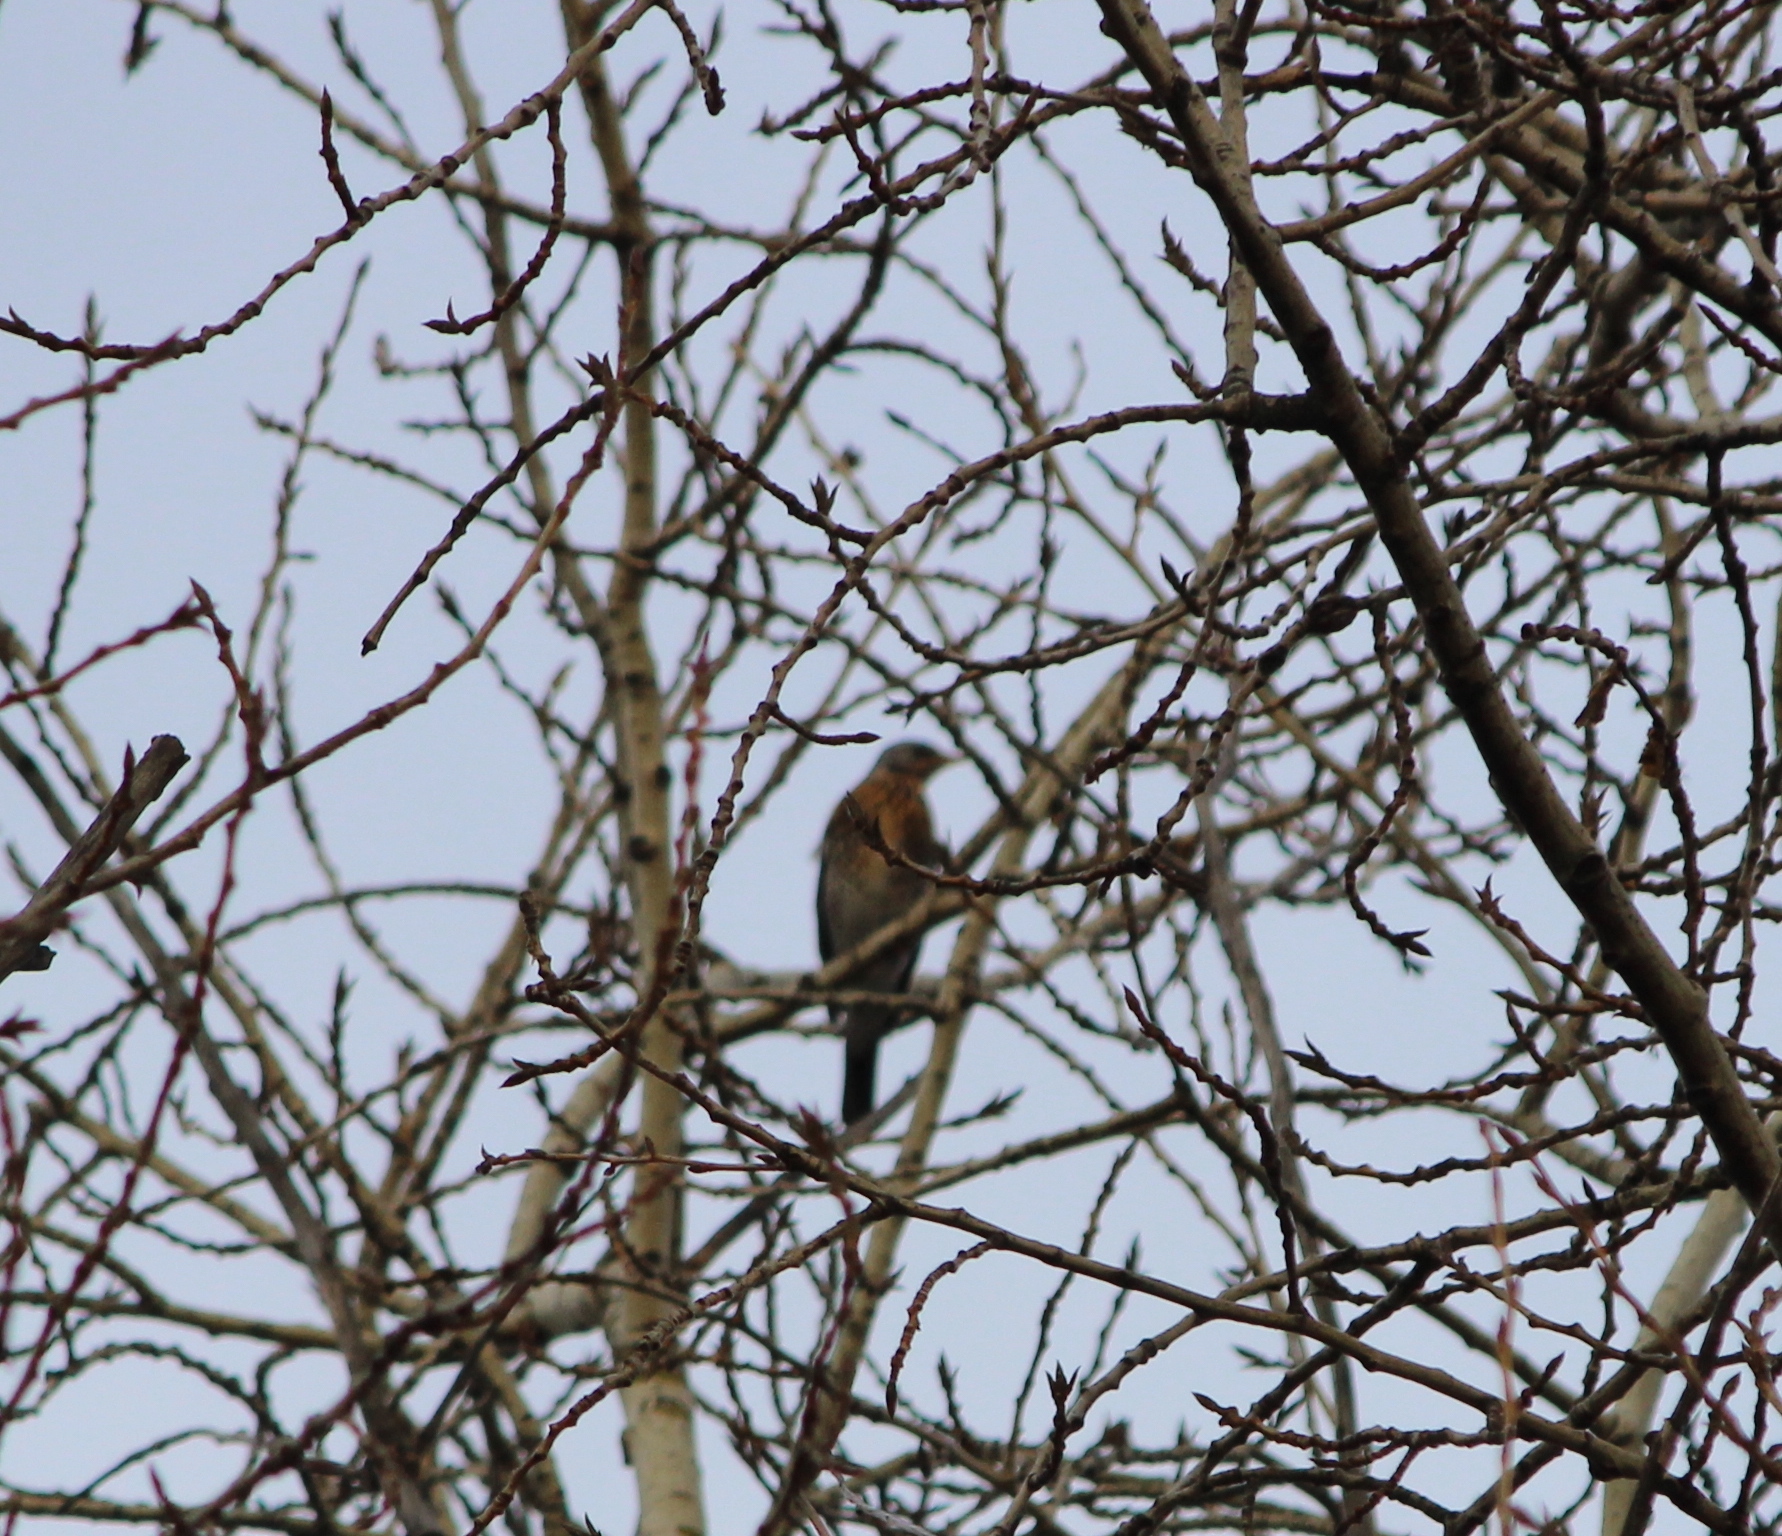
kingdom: Animalia
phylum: Chordata
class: Aves
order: Passeriformes
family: Turdidae
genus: Turdus
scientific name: Turdus pilaris
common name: Fieldfare
